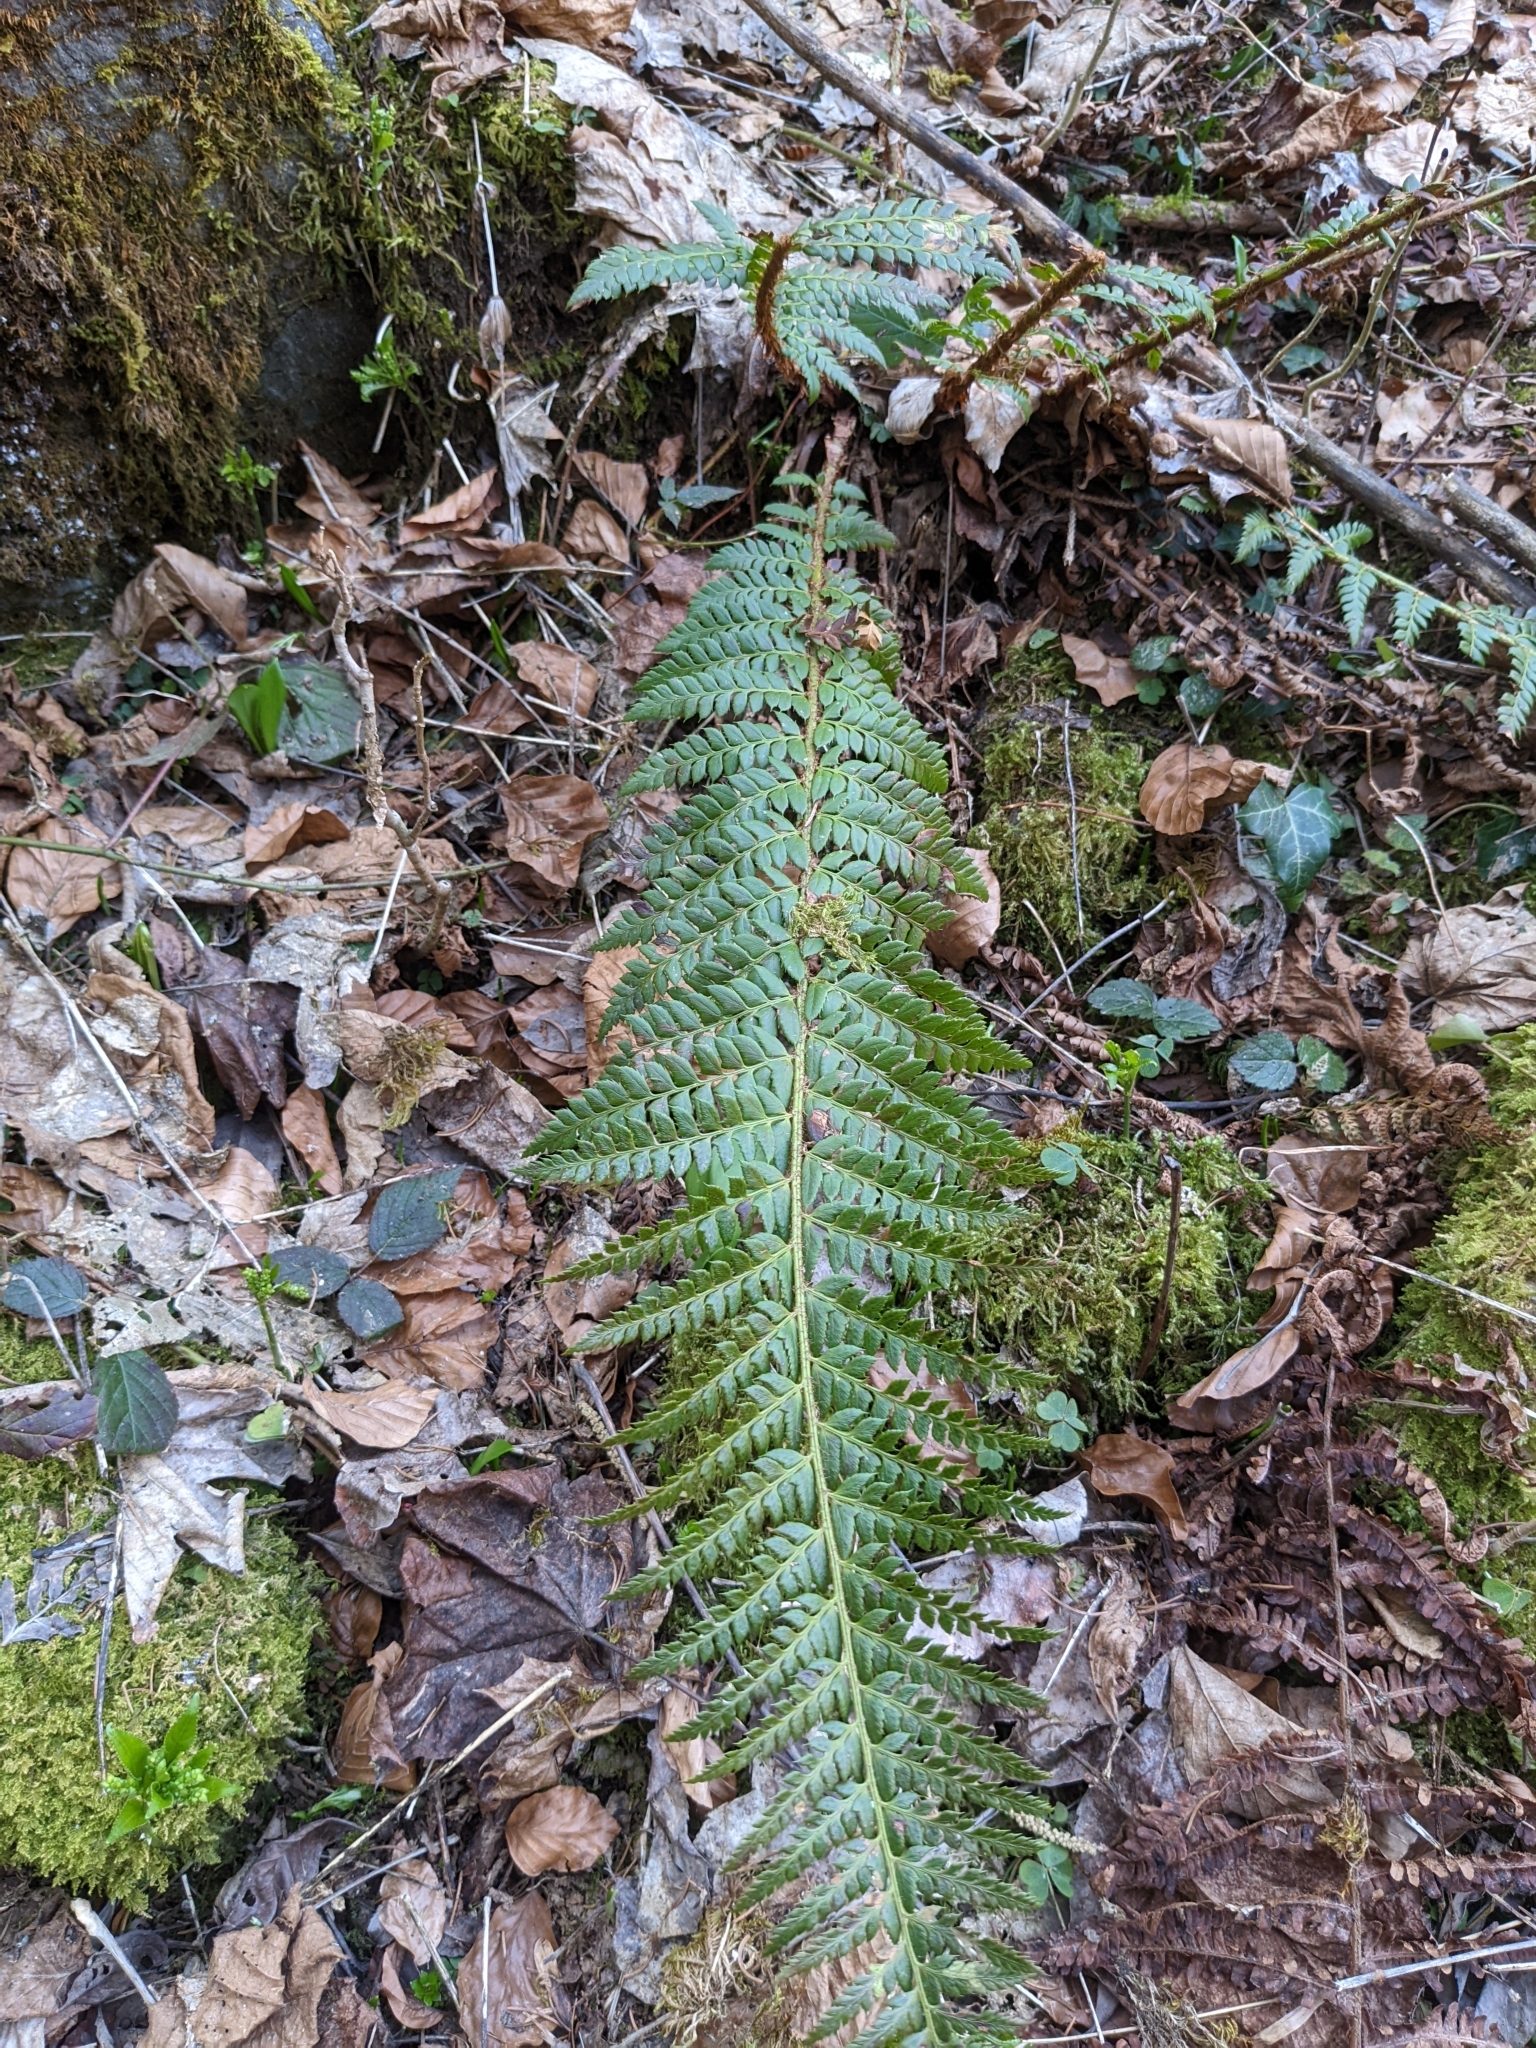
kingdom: Plantae
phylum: Tracheophyta
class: Polypodiopsida
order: Polypodiales
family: Dryopteridaceae
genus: Polystichum
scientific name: Polystichum aculeatum
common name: Hard shield-fern
